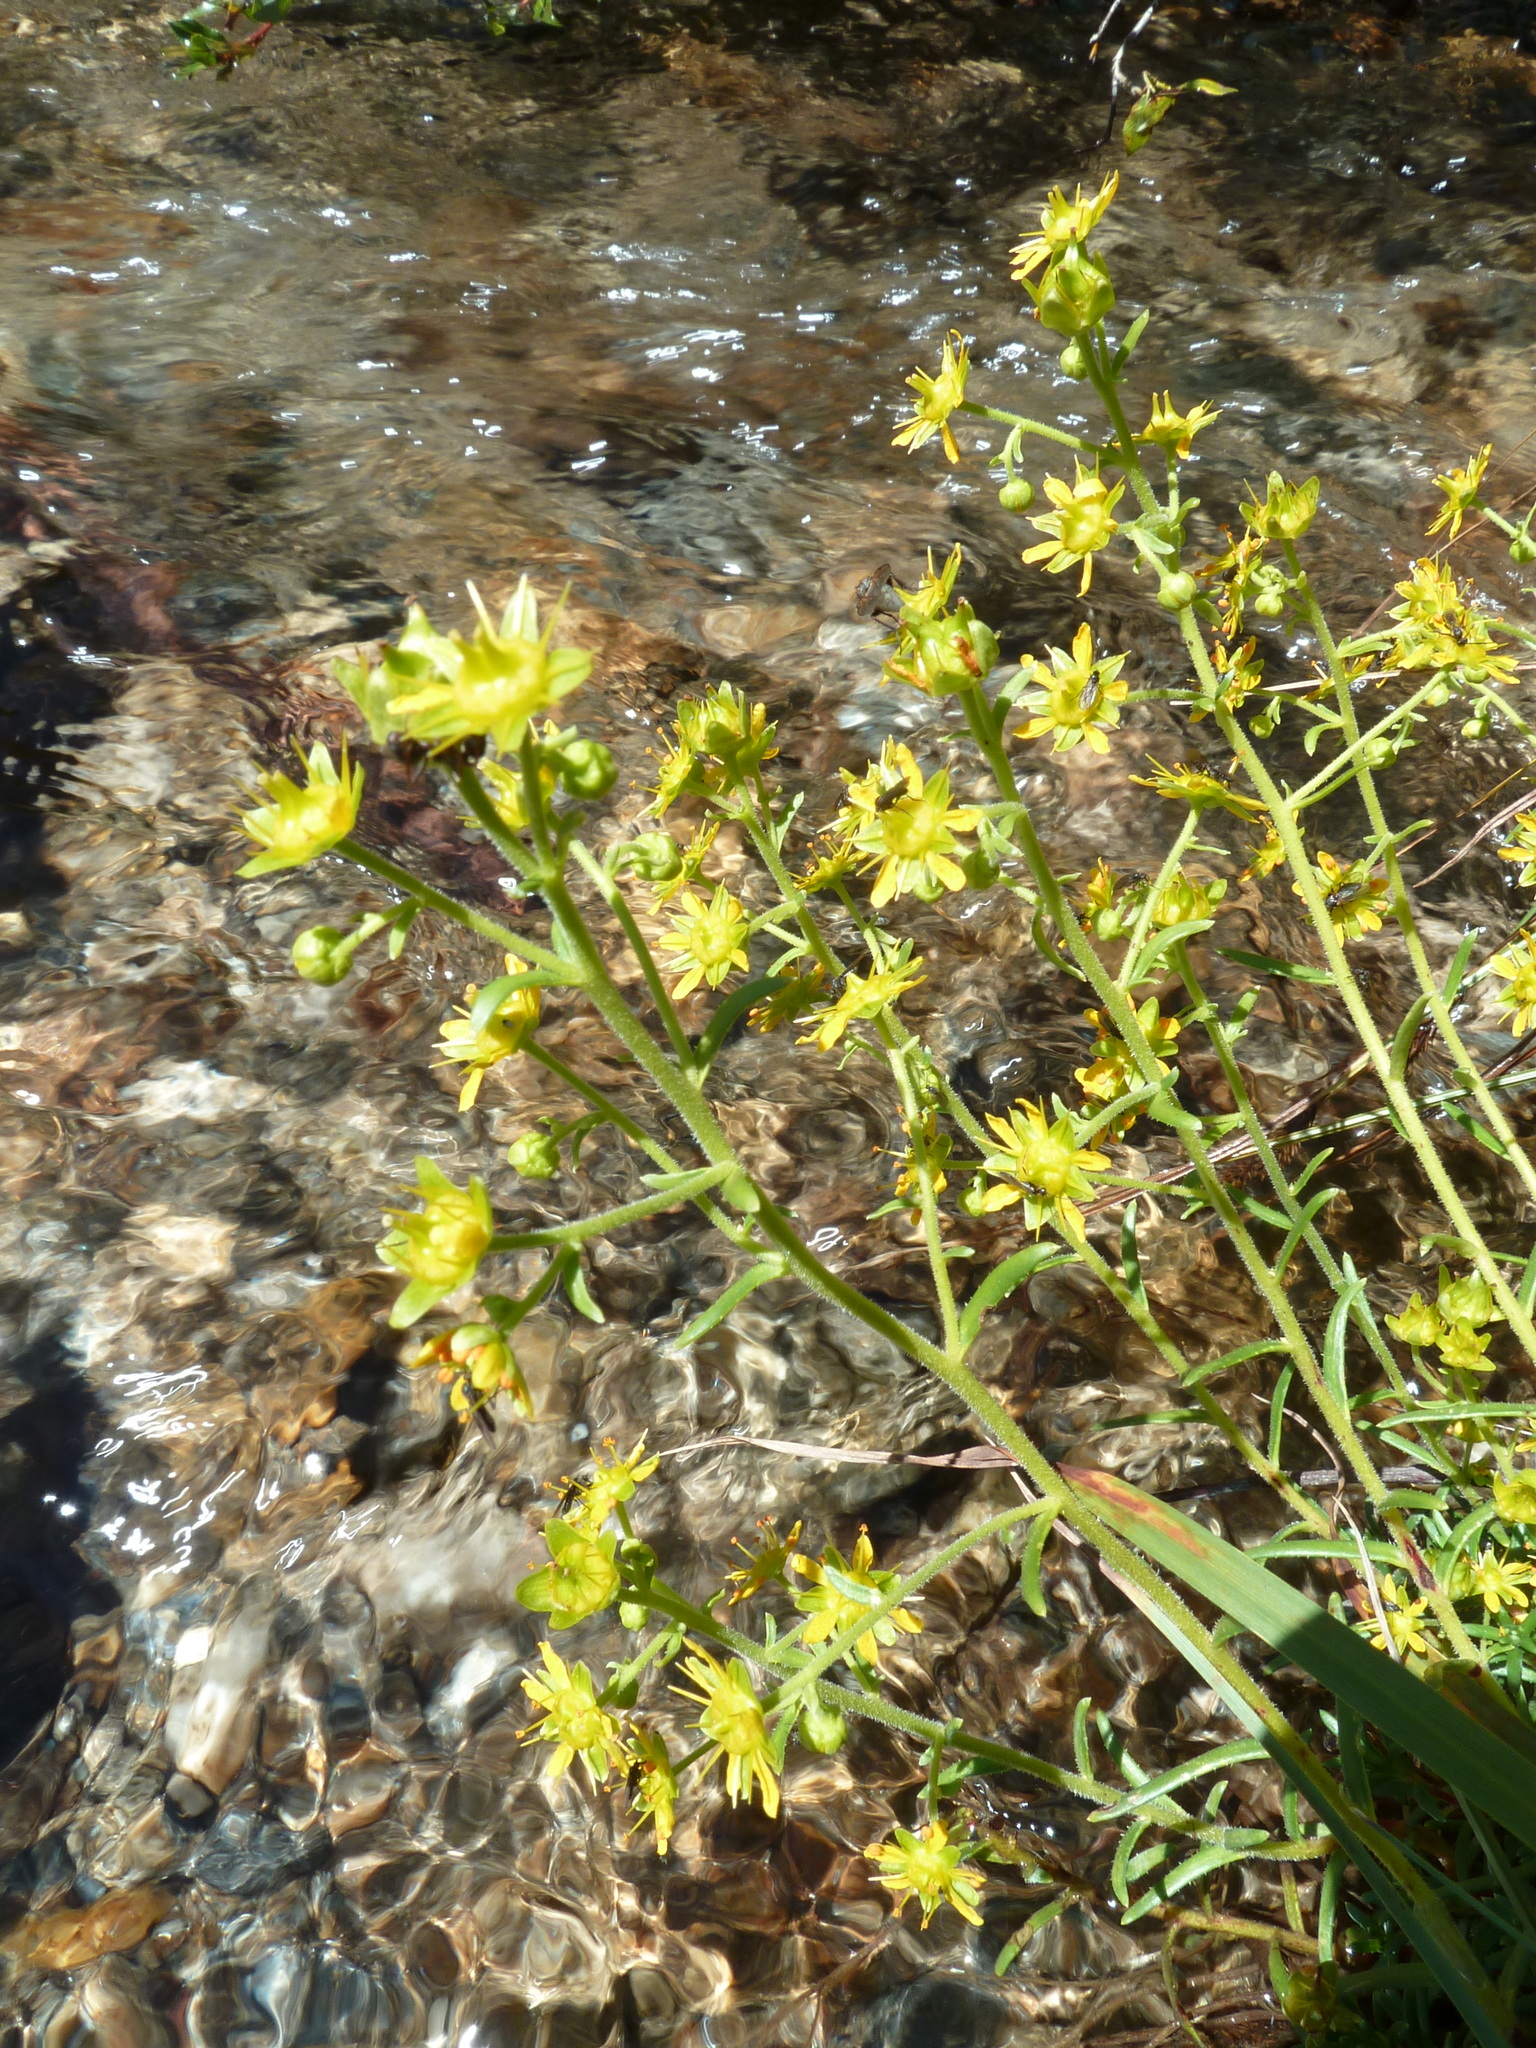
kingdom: Plantae
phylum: Tracheophyta
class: Magnoliopsida
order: Saxifragales
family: Saxifragaceae
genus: Saxifraga
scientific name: Saxifraga aizoides
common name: Yellow mountain saxifrage
